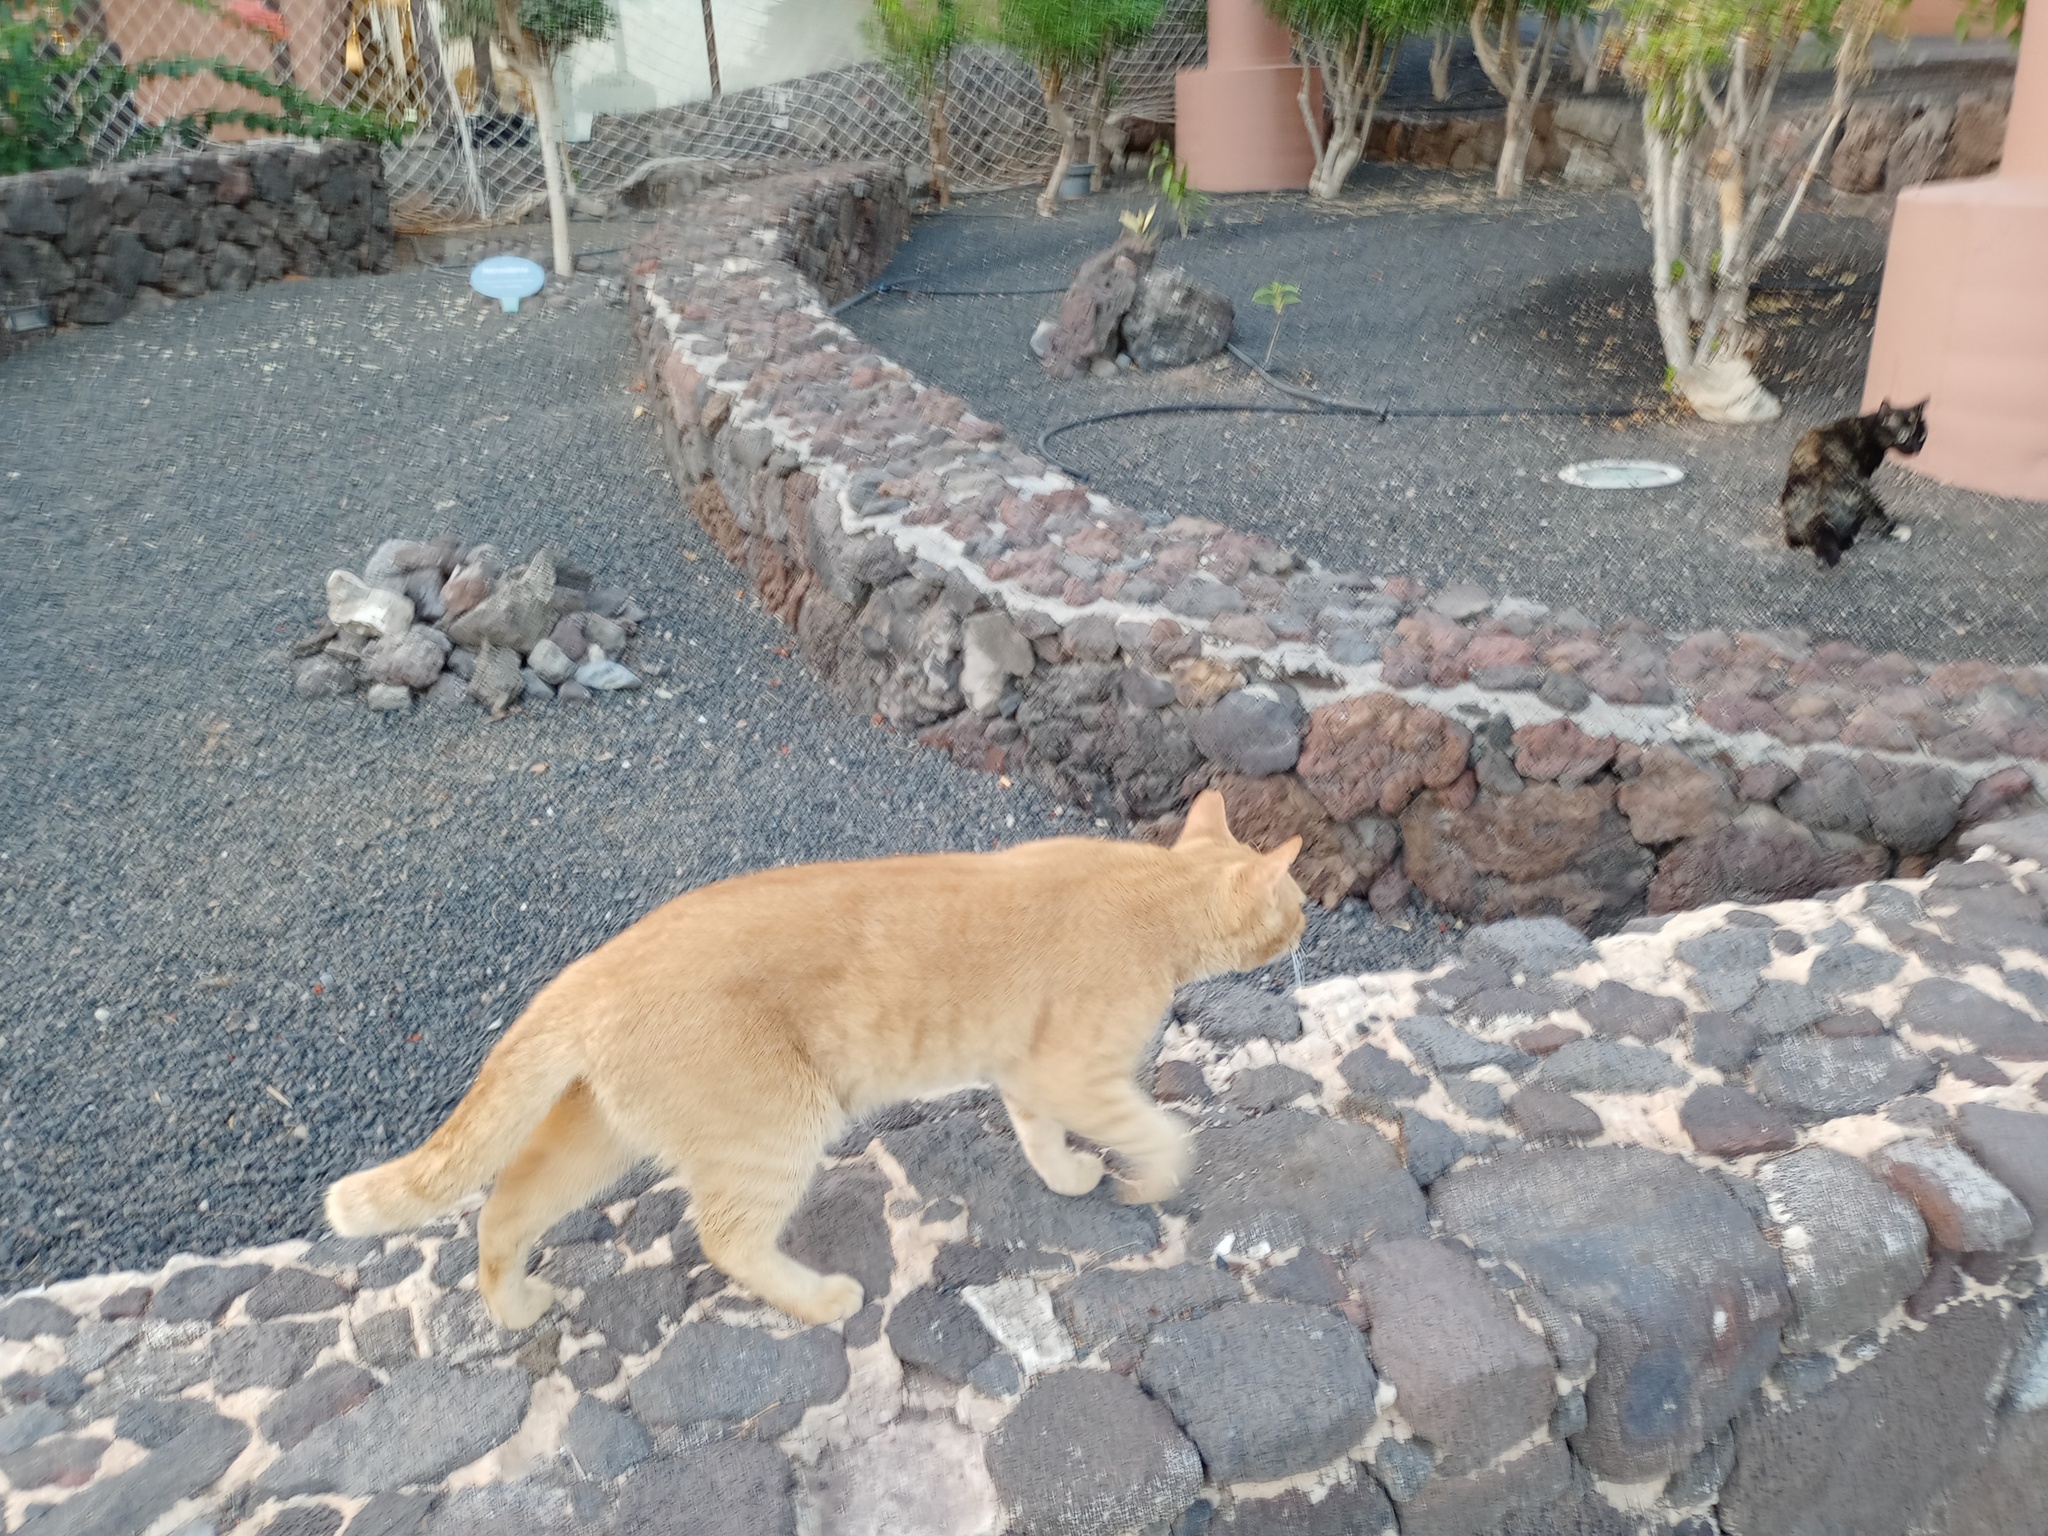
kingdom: Animalia
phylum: Chordata
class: Mammalia
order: Carnivora
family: Felidae
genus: Felis
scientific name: Felis catus
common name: Domestic cat
